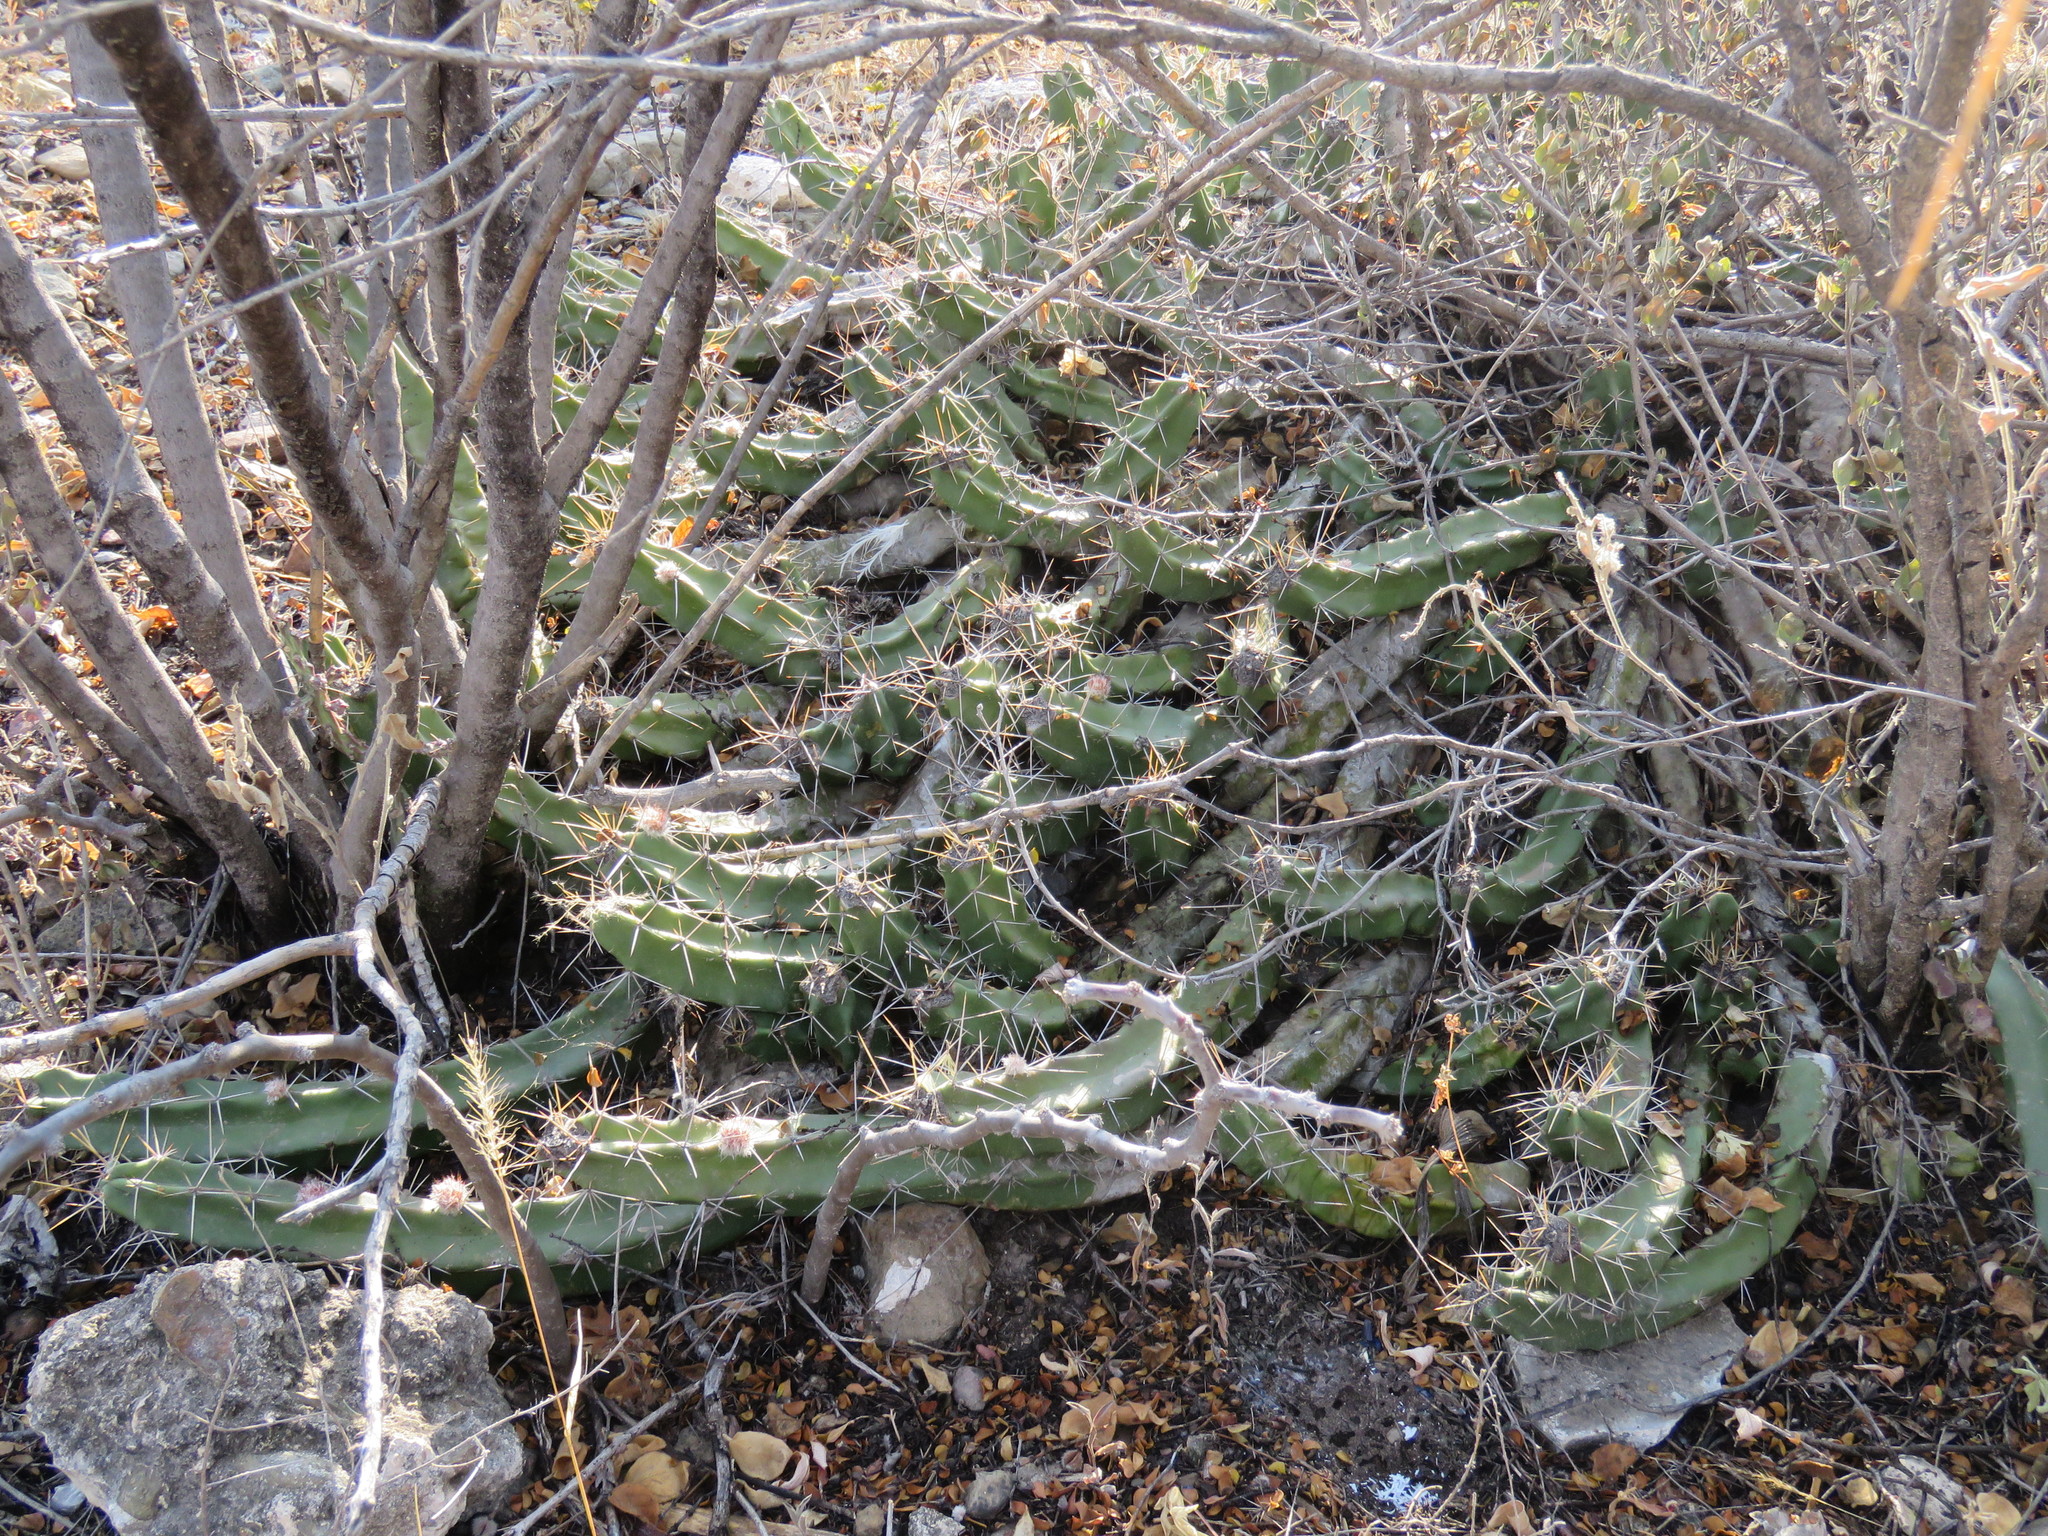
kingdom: Plantae
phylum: Tracheophyta
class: Magnoliopsida
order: Caryophyllales
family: Cactaceae
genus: Echinocereus
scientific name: Echinocereus pentalophus
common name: Ladyfinger cactus
